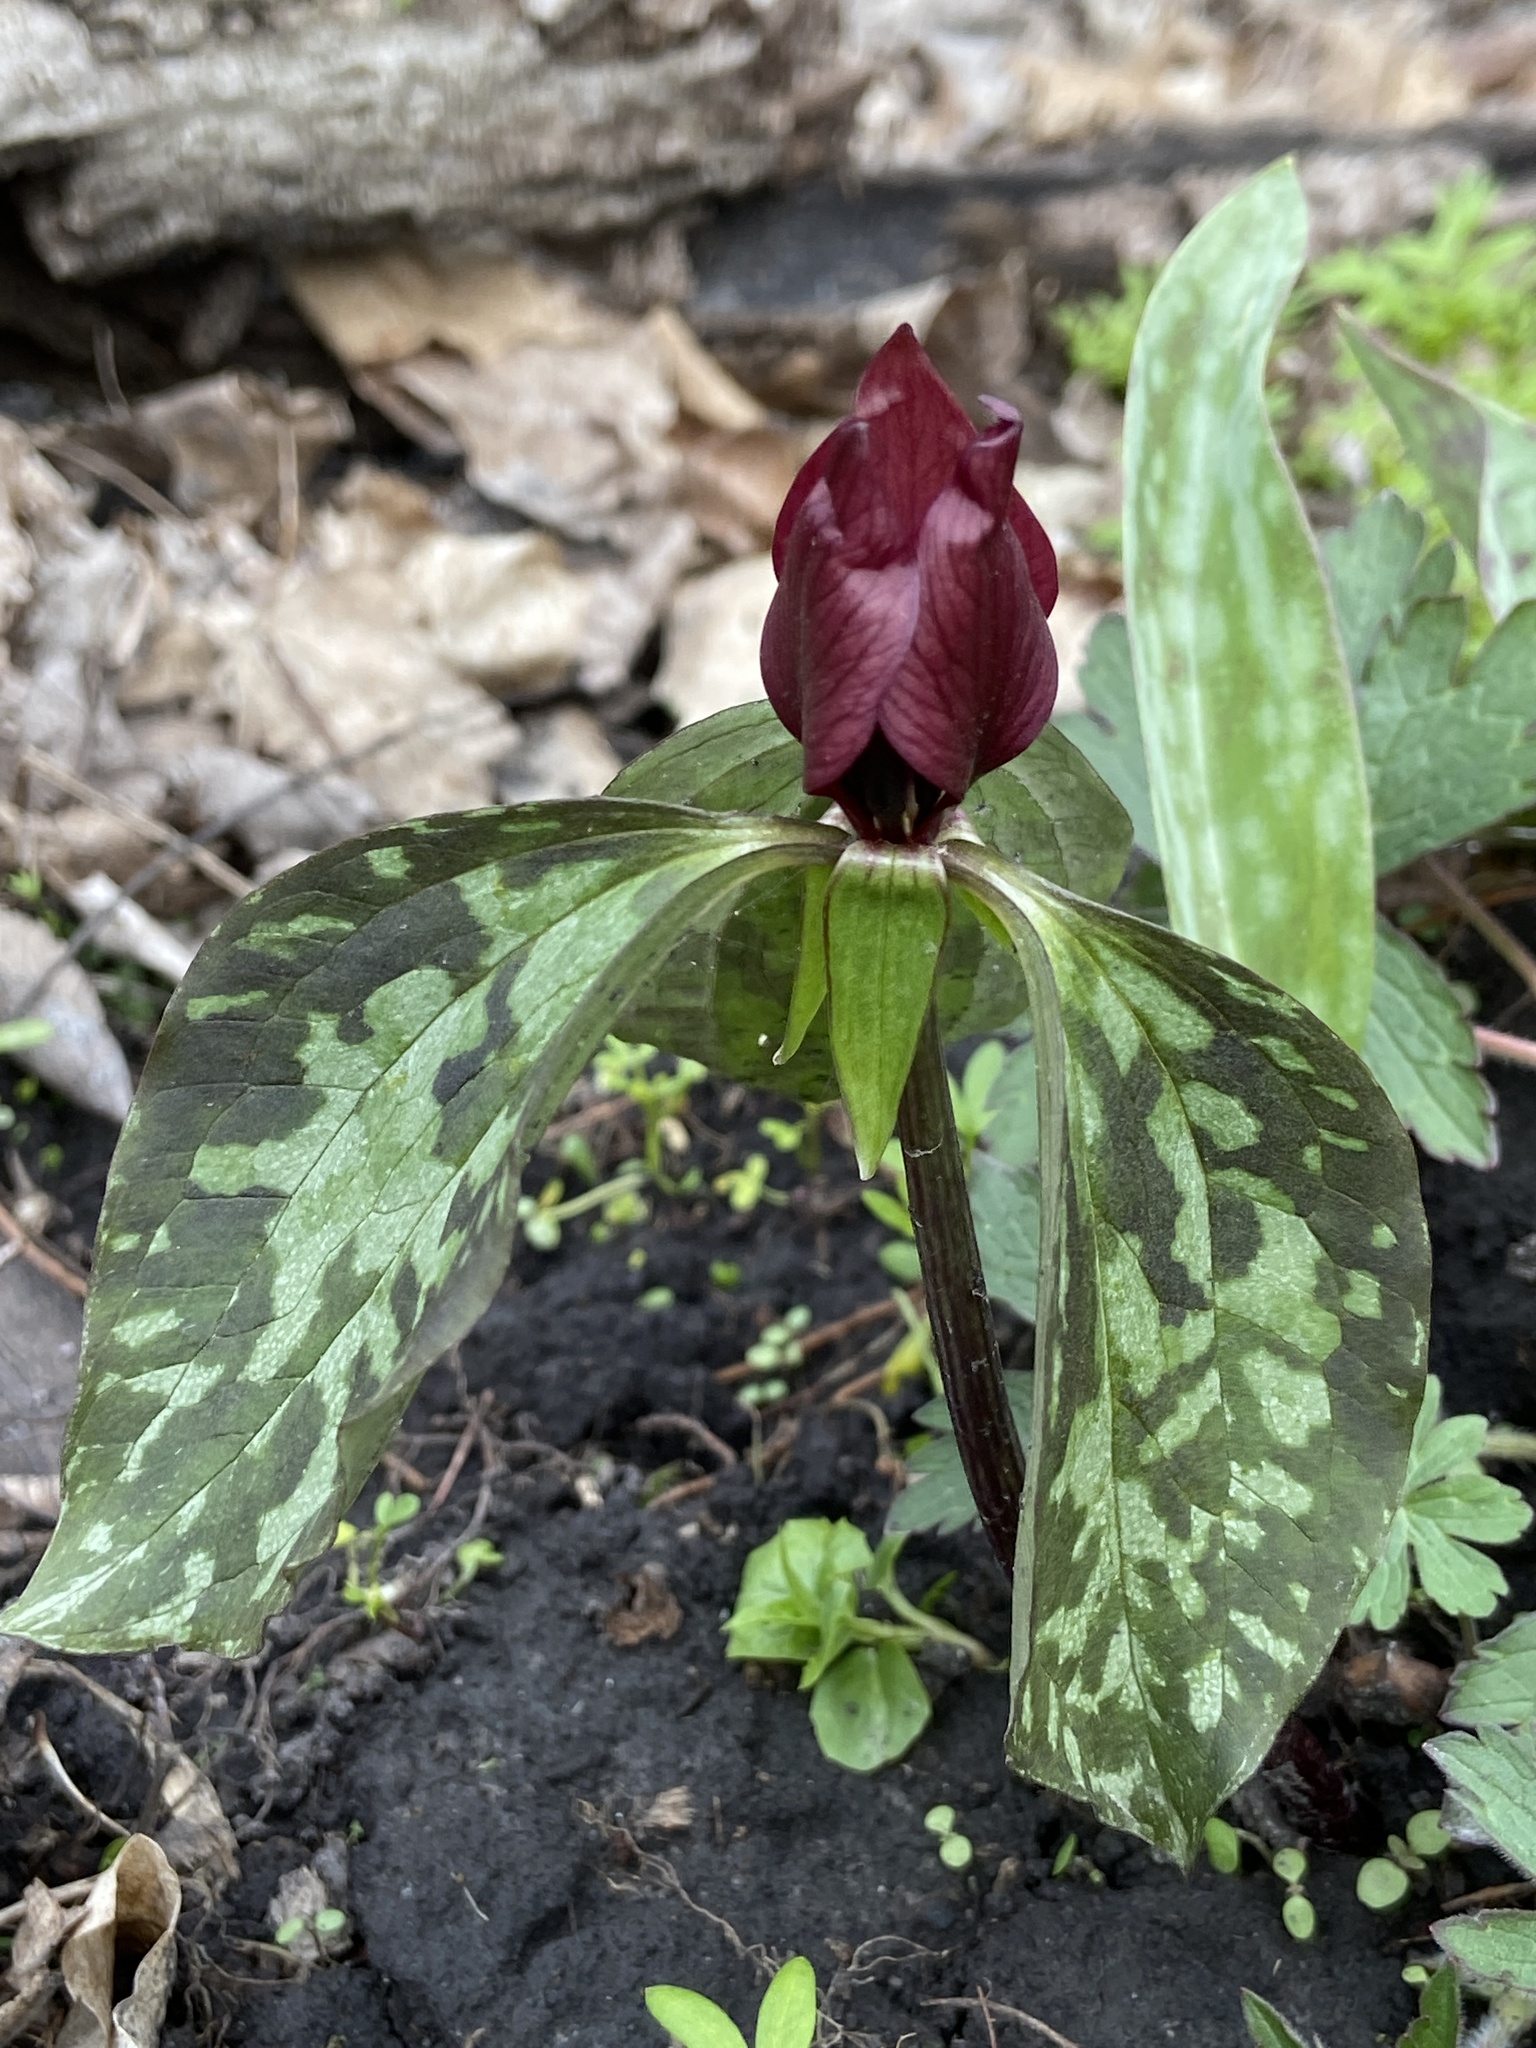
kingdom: Plantae
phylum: Tracheophyta
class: Liliopsida
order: Liliales
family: Melanthiaceae
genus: Trillium
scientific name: Trillium recurvatum
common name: Bloody butcher
